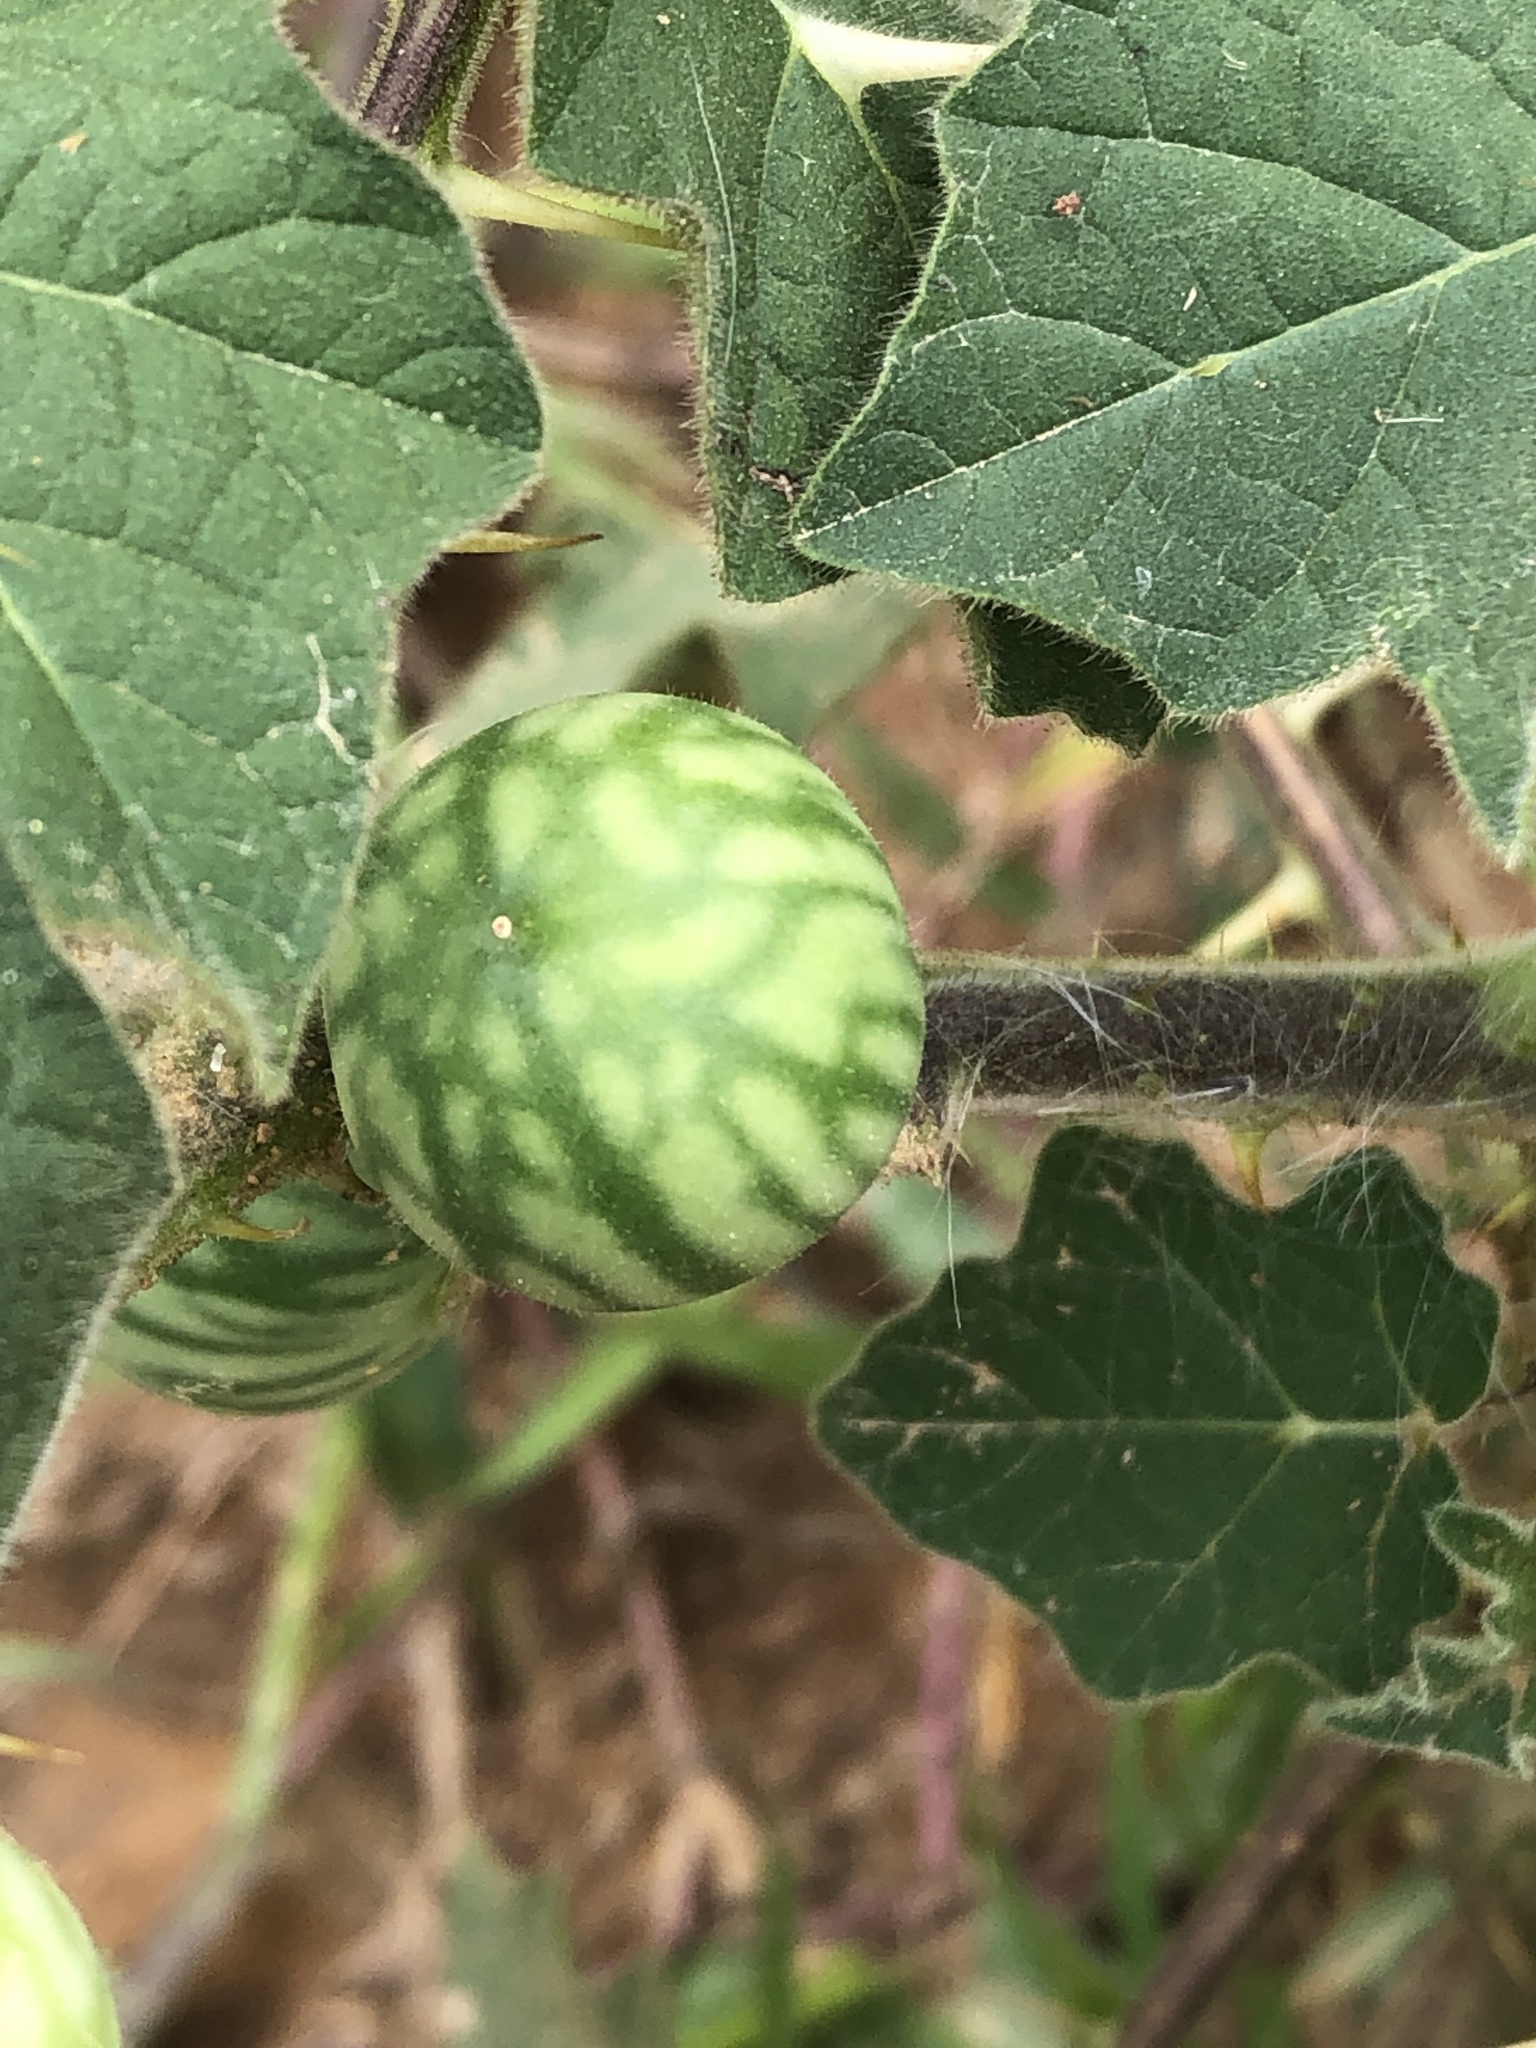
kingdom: Plantae
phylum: Tracheophyta
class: Magnoliopsida
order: Solanales
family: Solanaceae
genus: Solanum
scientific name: Solanum viarum
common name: Tropical soda apple
